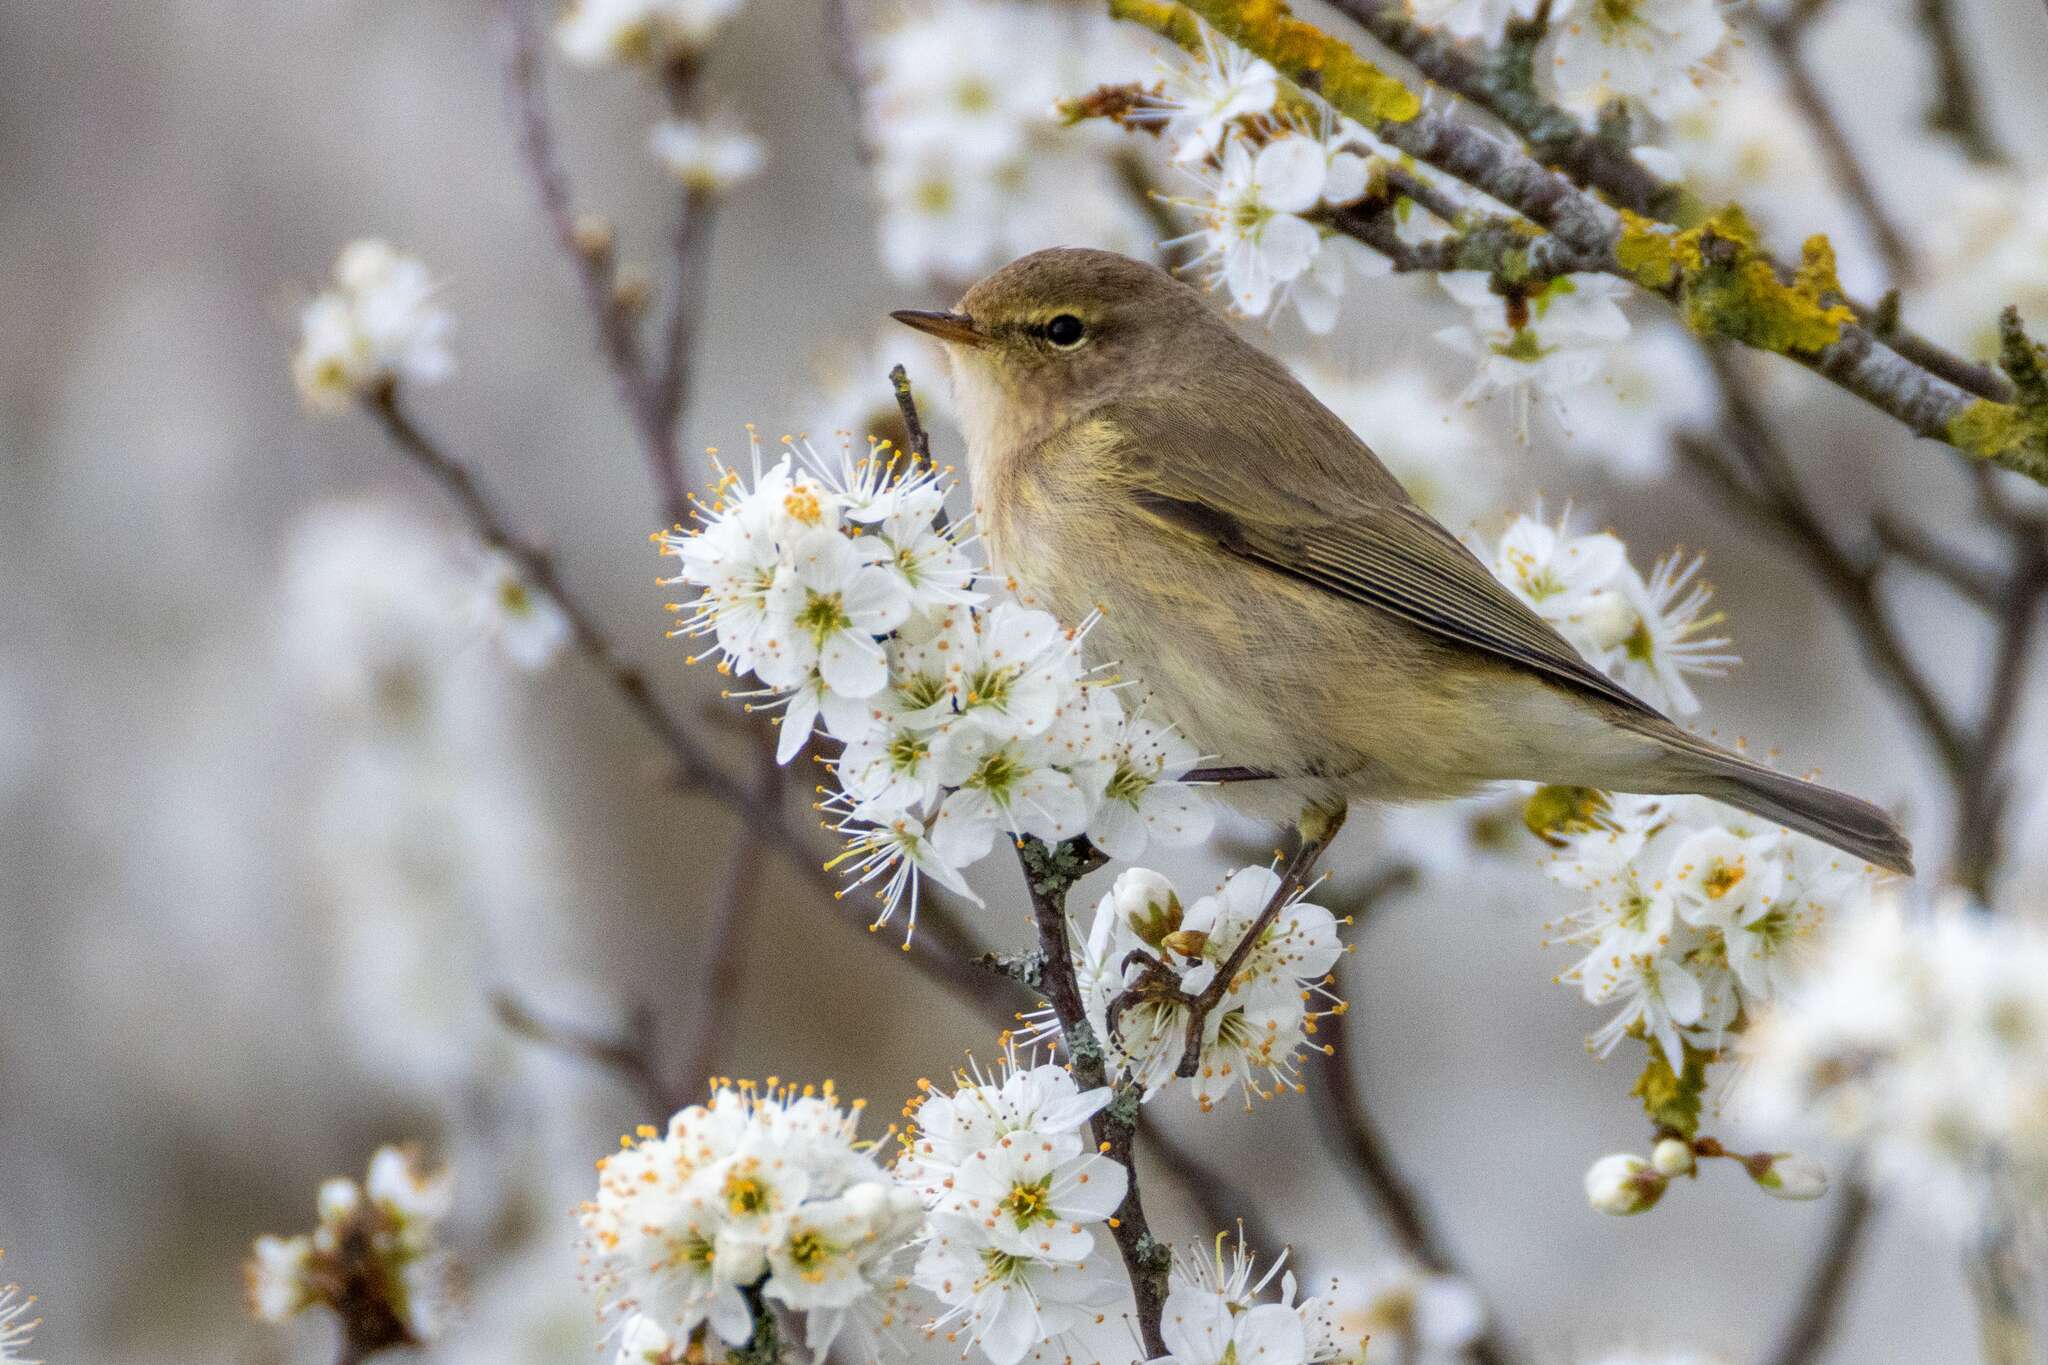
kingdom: Animalia
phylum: Chordata
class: Aves
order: Passeriformes
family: Phylloscopidae
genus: Phylloscopus
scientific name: Phylloscopus collybita
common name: Common chiffchaff
